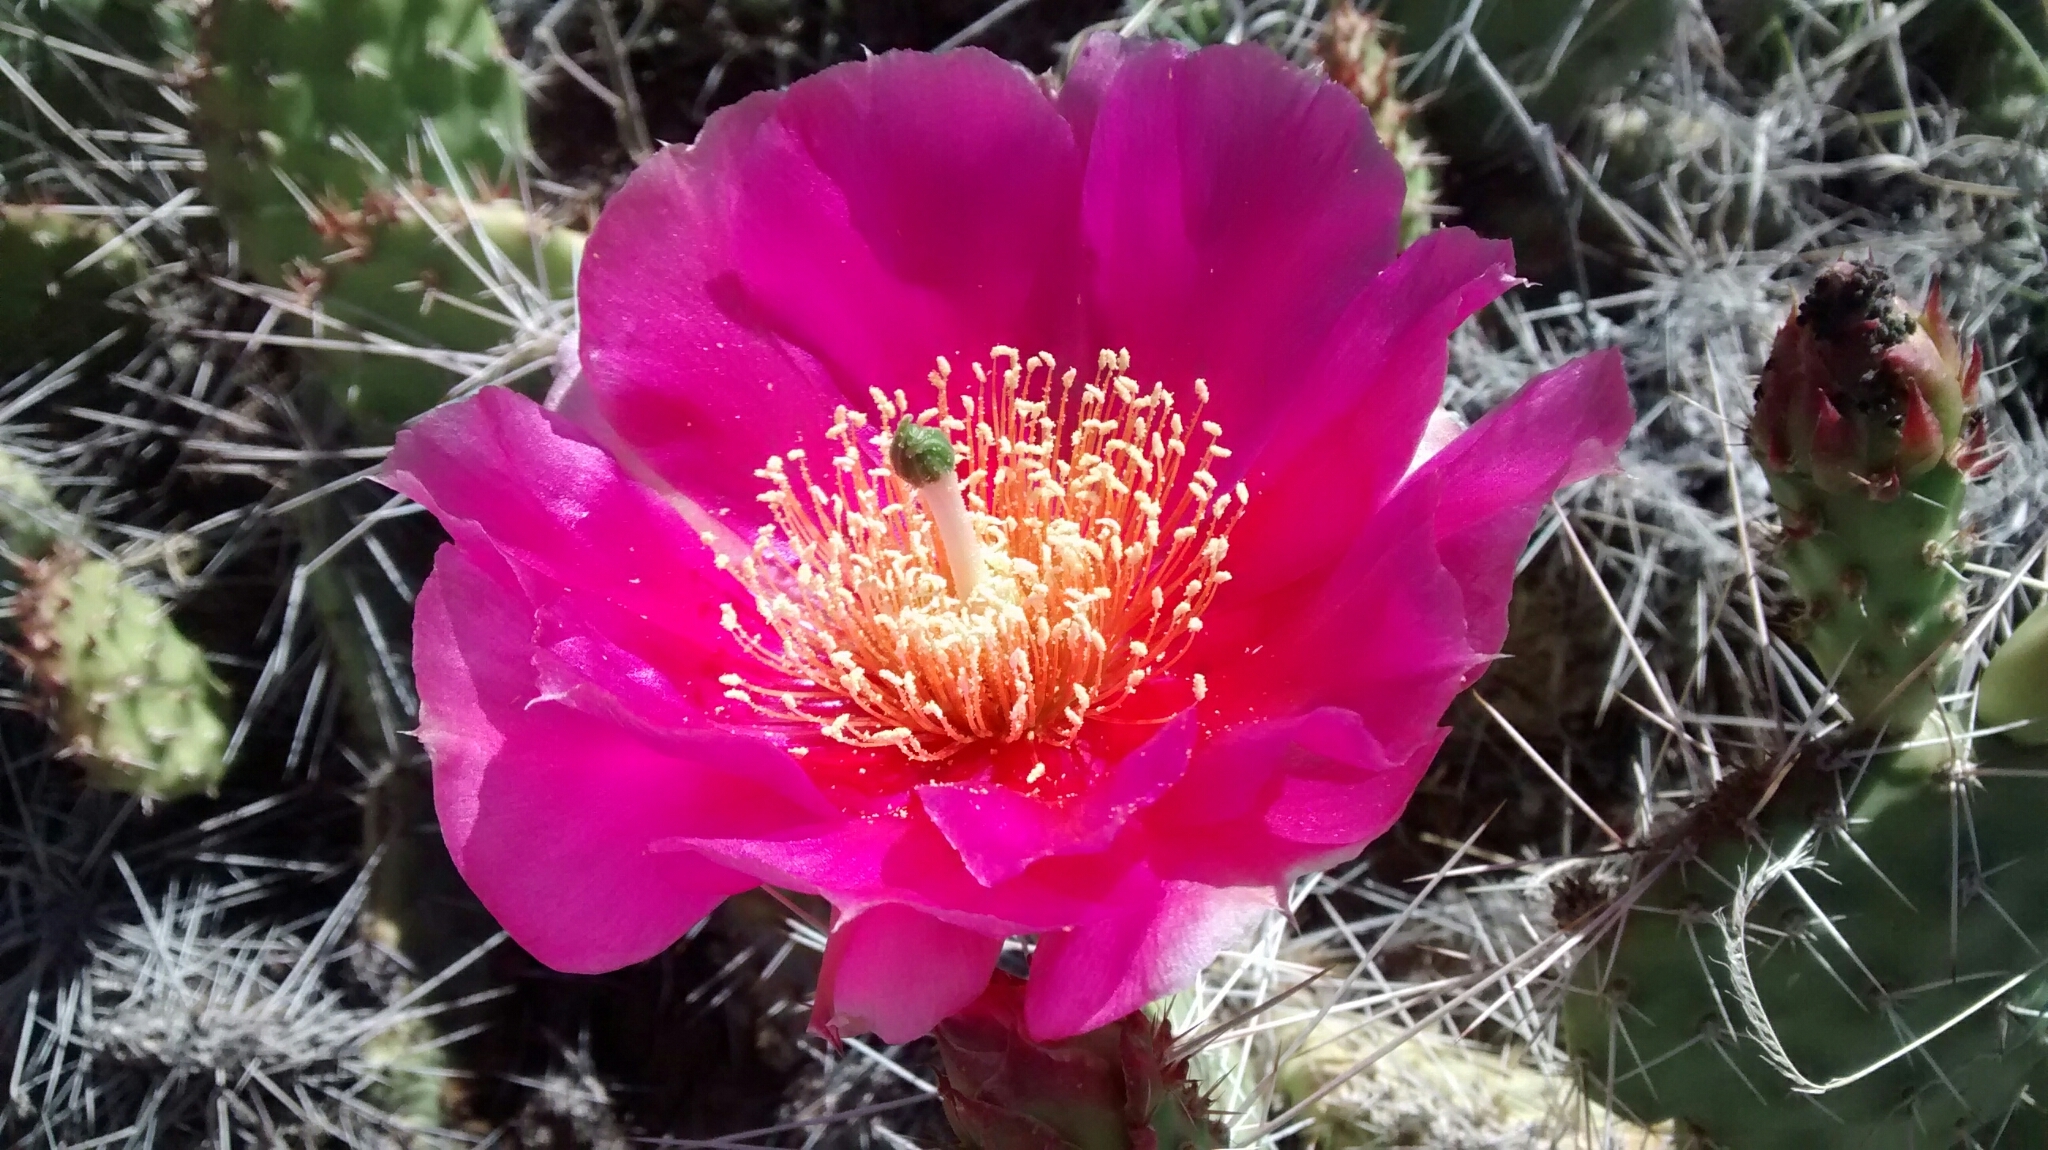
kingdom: Plantae
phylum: Tracheophyta
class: Magnoliopsida
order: Caryophyllales
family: Cactaceae
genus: Opuntia
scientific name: Opuntia polyacantha
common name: Plains prickly-pear
